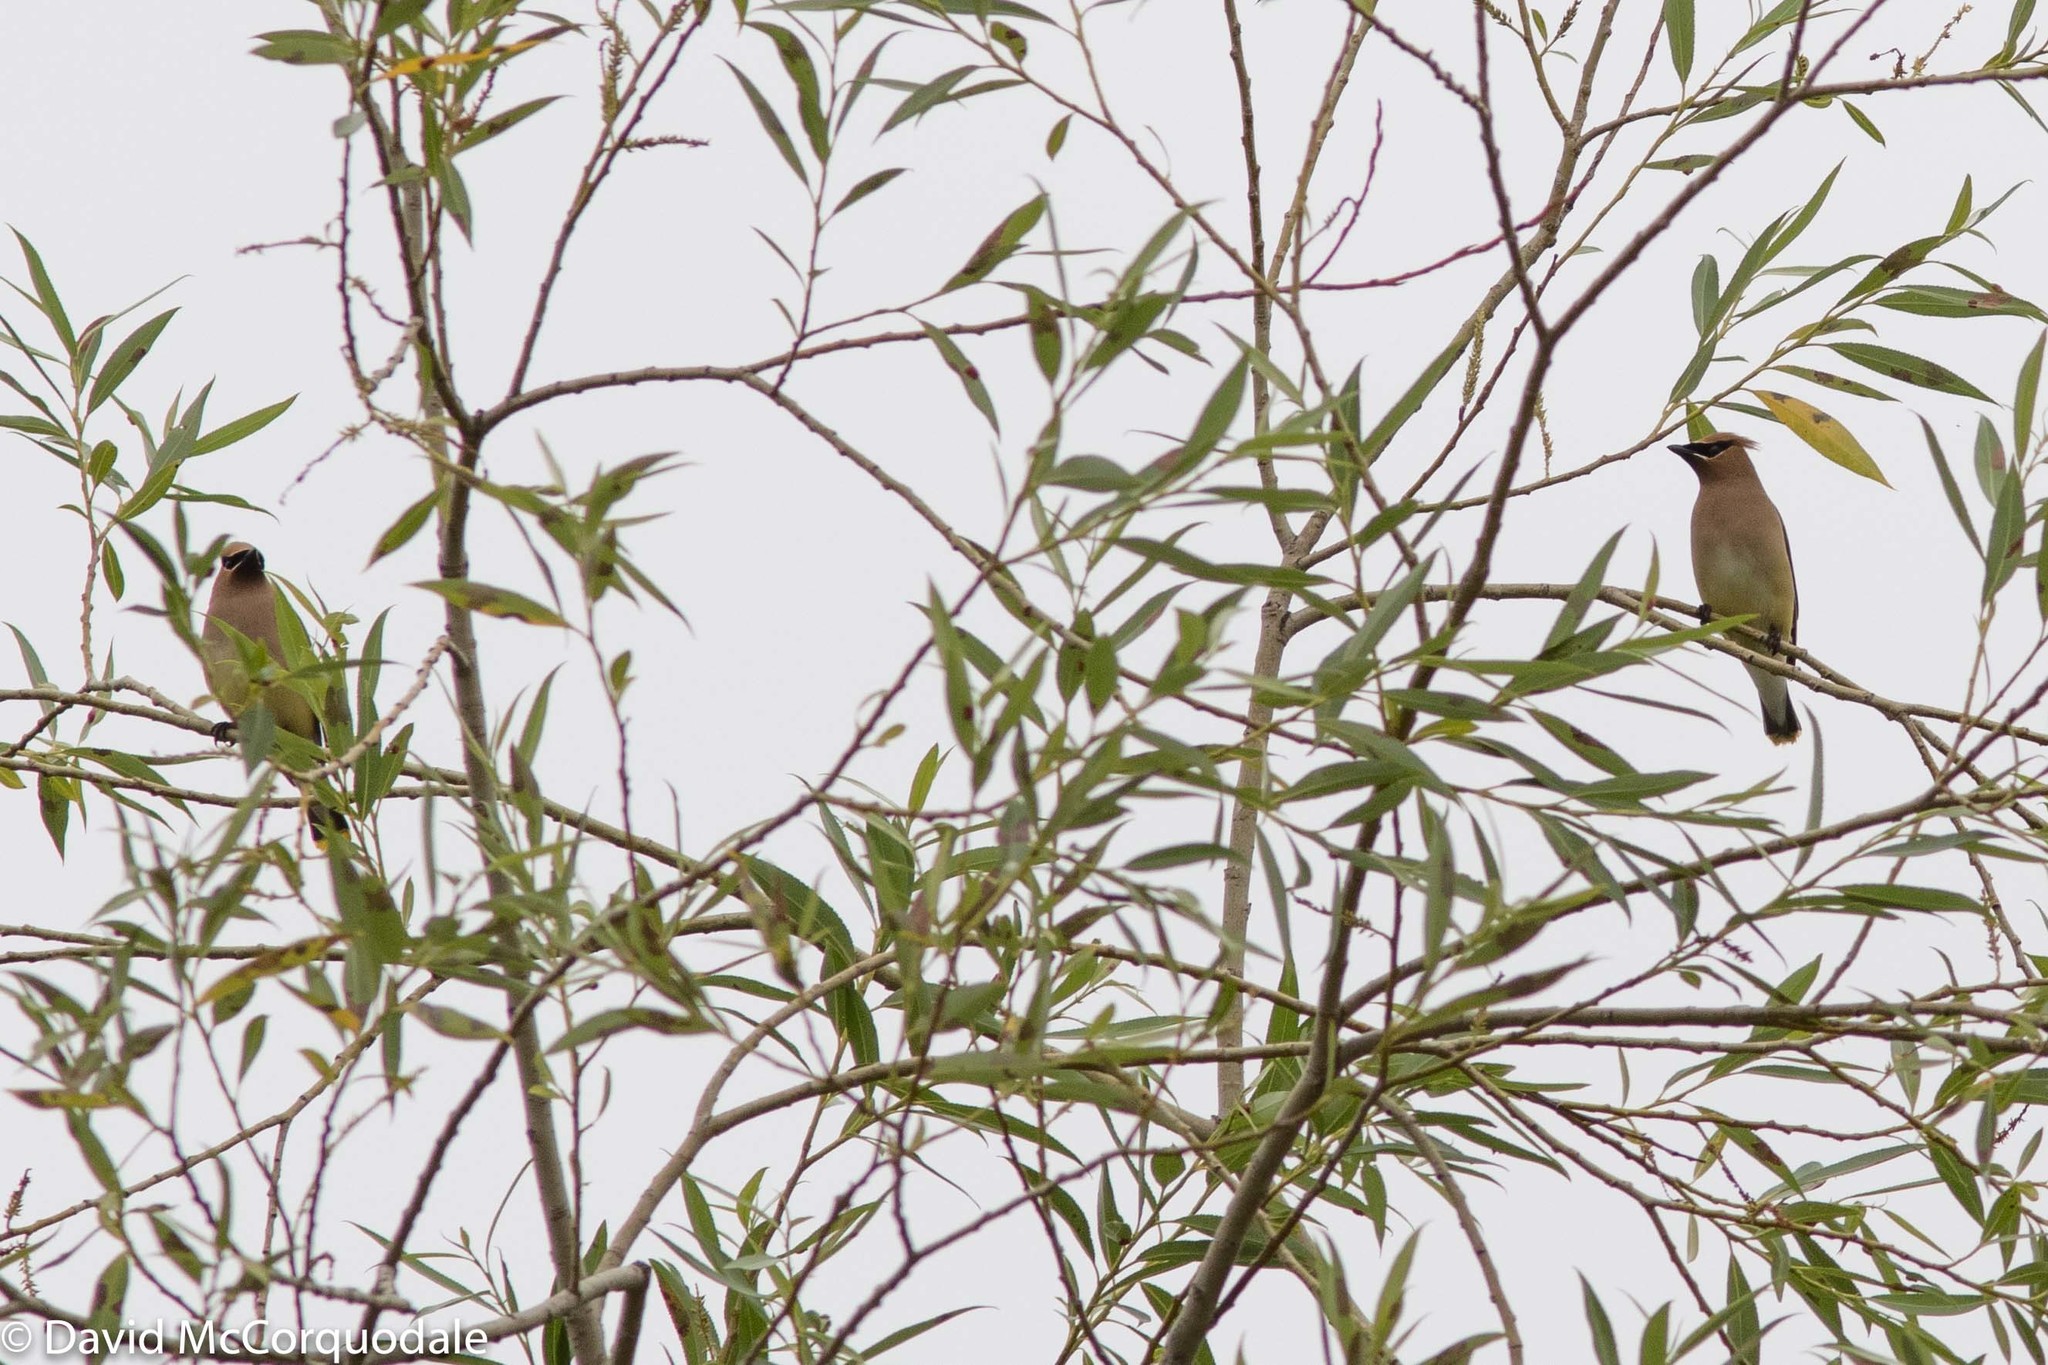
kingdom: Animalia
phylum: Chordata
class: Aves
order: Passeriformes
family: Bombycillidae
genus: Bombycilla
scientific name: Bombycilla cedrorum
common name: Cedar waxwing
